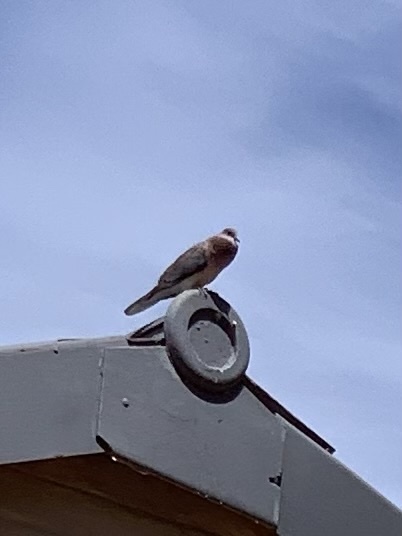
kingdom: Animalia
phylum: Chordata
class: Aves
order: Columbiformes
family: Columbidae
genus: Spilopelia
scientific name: Spilopelia senegalensis
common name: Laughing dove
